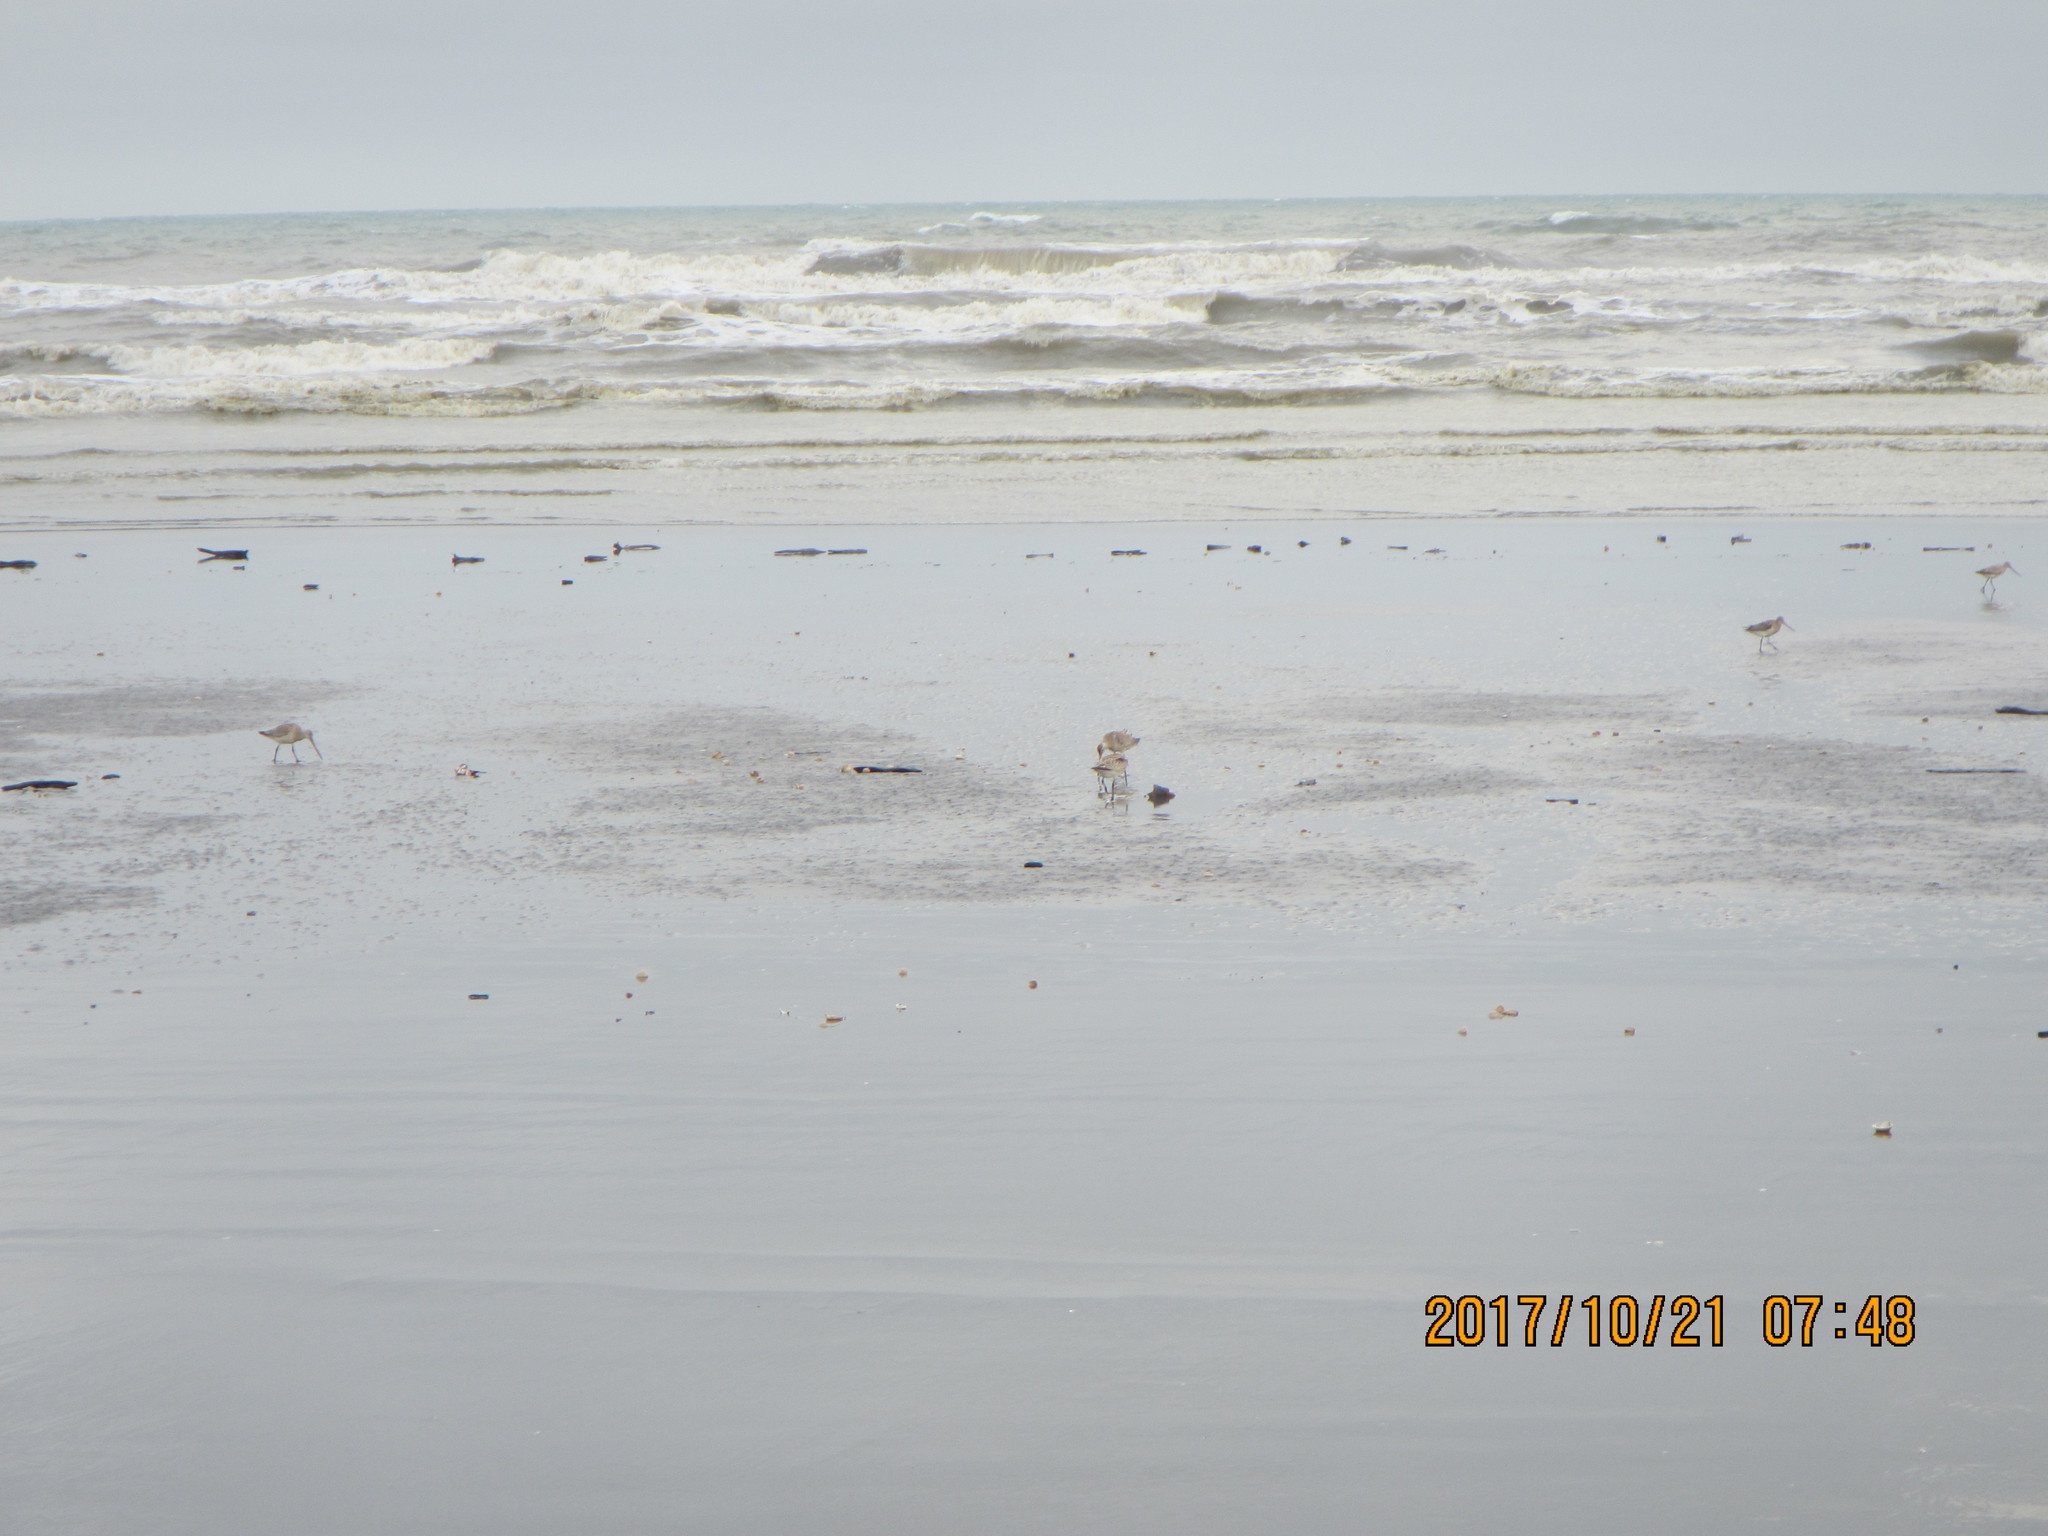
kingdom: Animalia
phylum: Chordata
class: Aves
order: Charadriiformes
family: Scolopacidae
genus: Limosa
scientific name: Limosa lapponica
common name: Bar-tailed godwit
